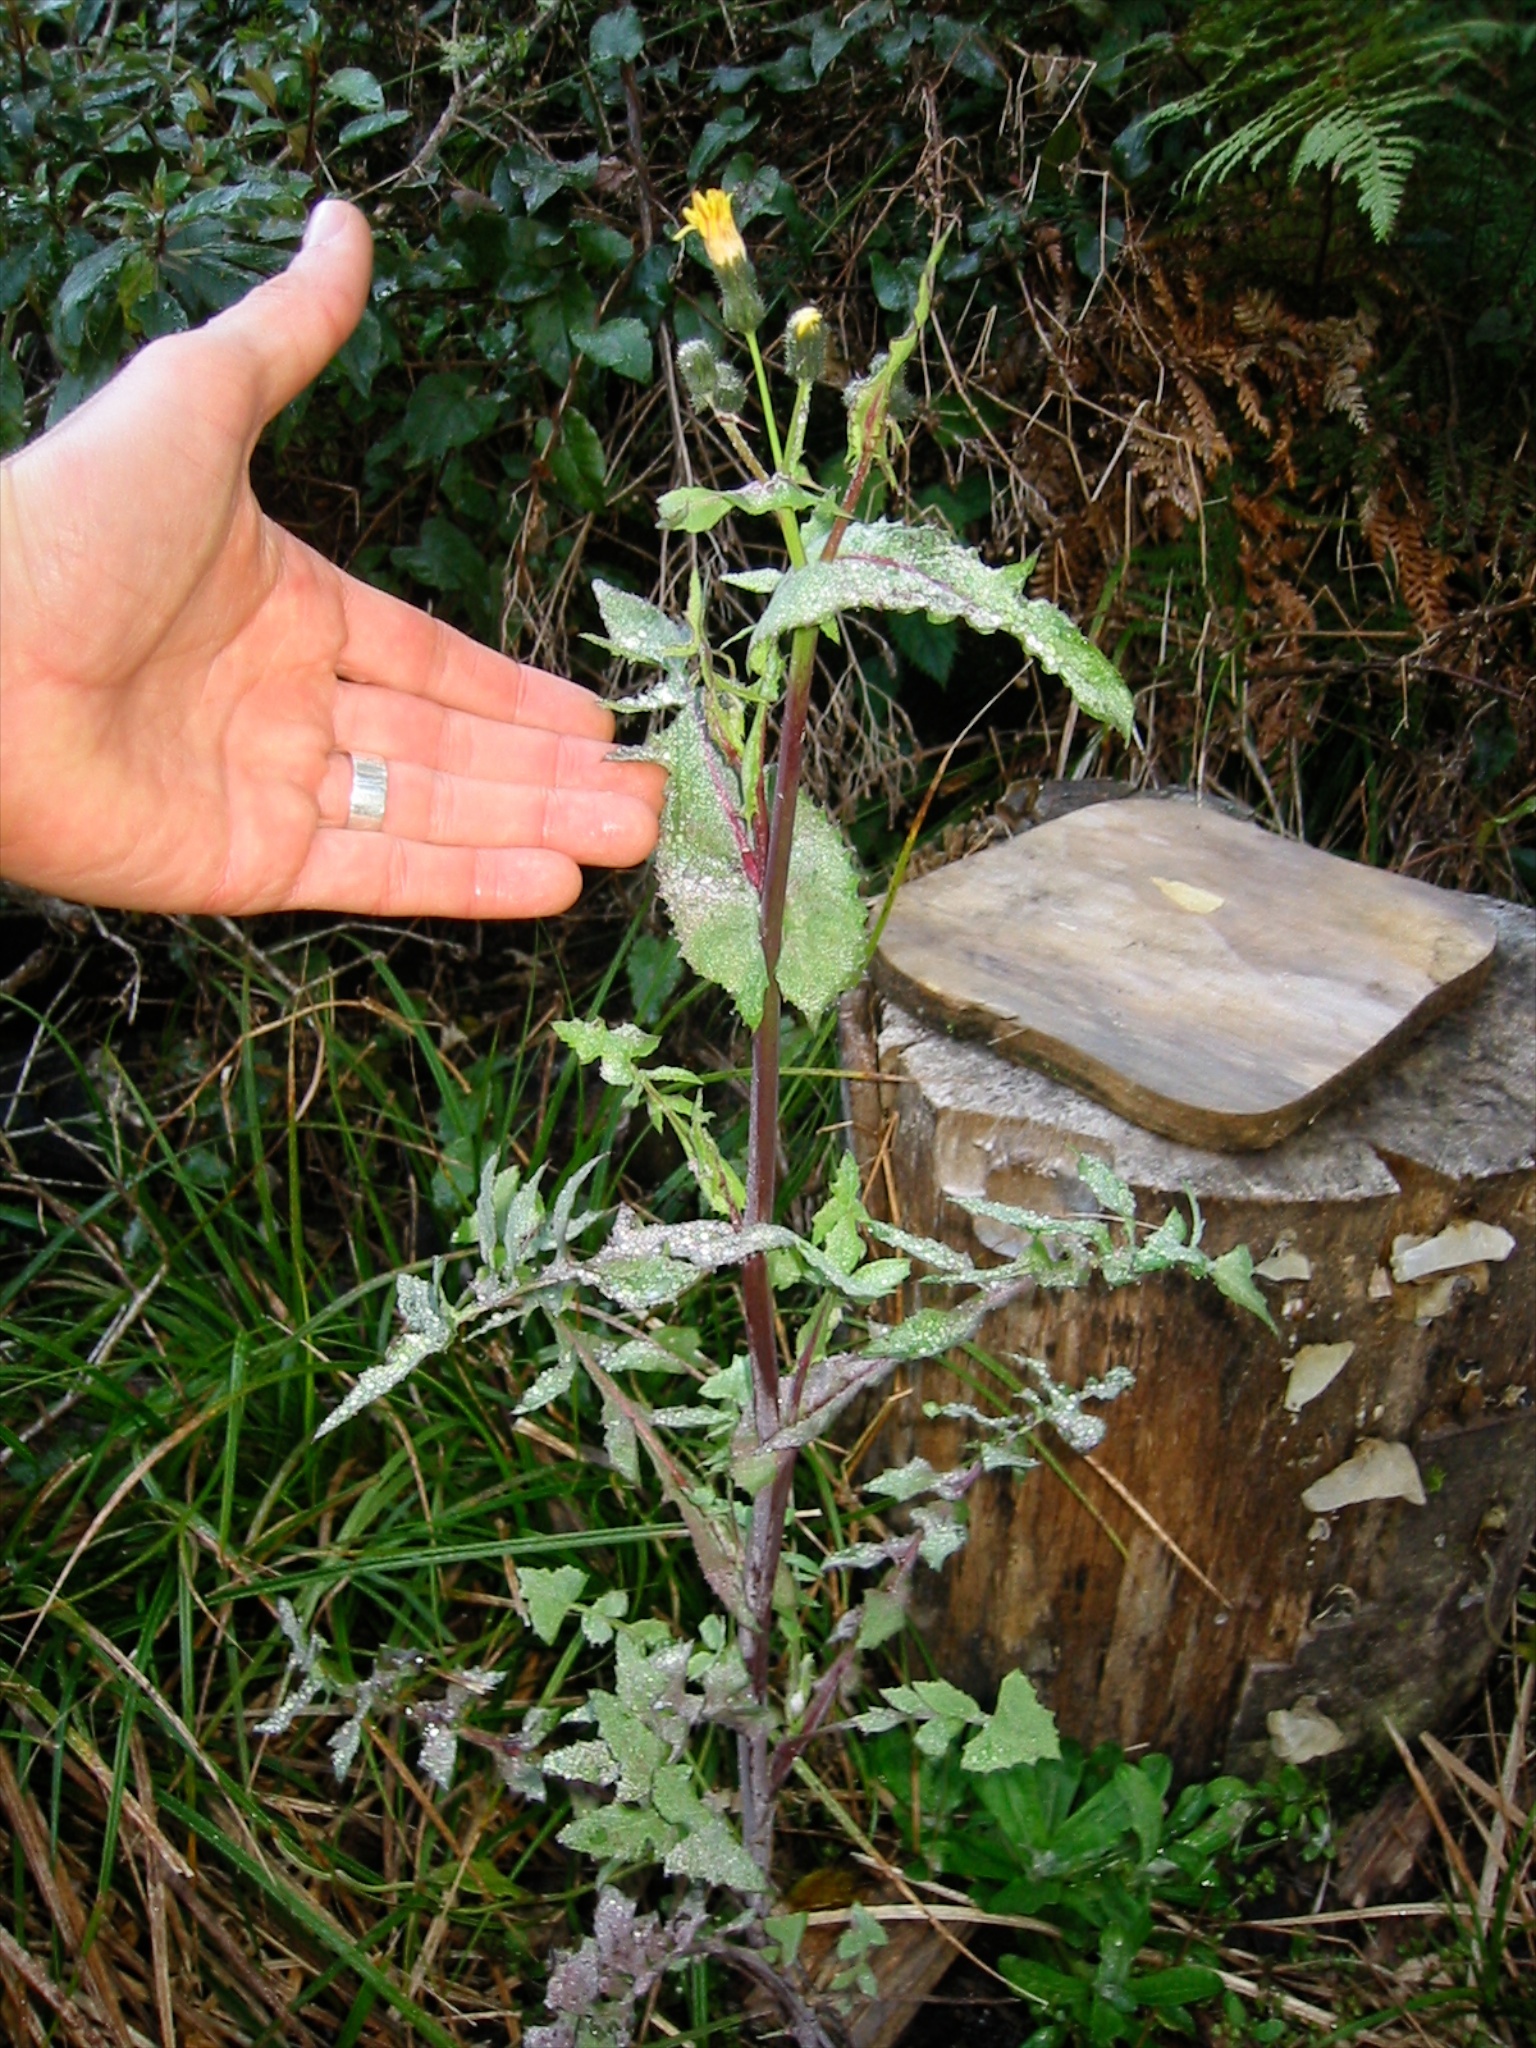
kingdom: Plantae
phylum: Tracheophyta
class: Magnoliopsida
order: Asterales
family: Asteraceae
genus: Sonchus
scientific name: Sonchus oleraceus
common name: Common sowthistle
